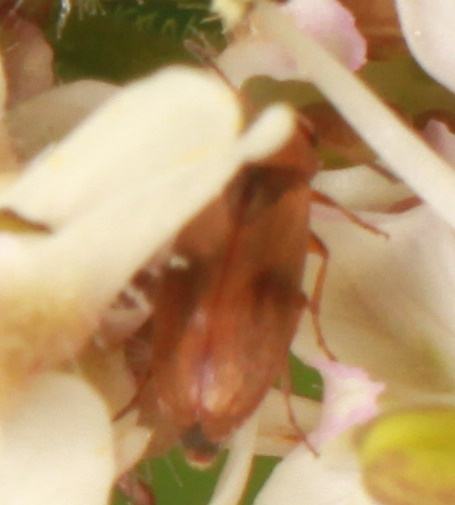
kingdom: Animalia
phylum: Arthropoda
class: Insecta
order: Coleoptera
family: Scraptiidae
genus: Anaspis
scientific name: Anaspis maculata
